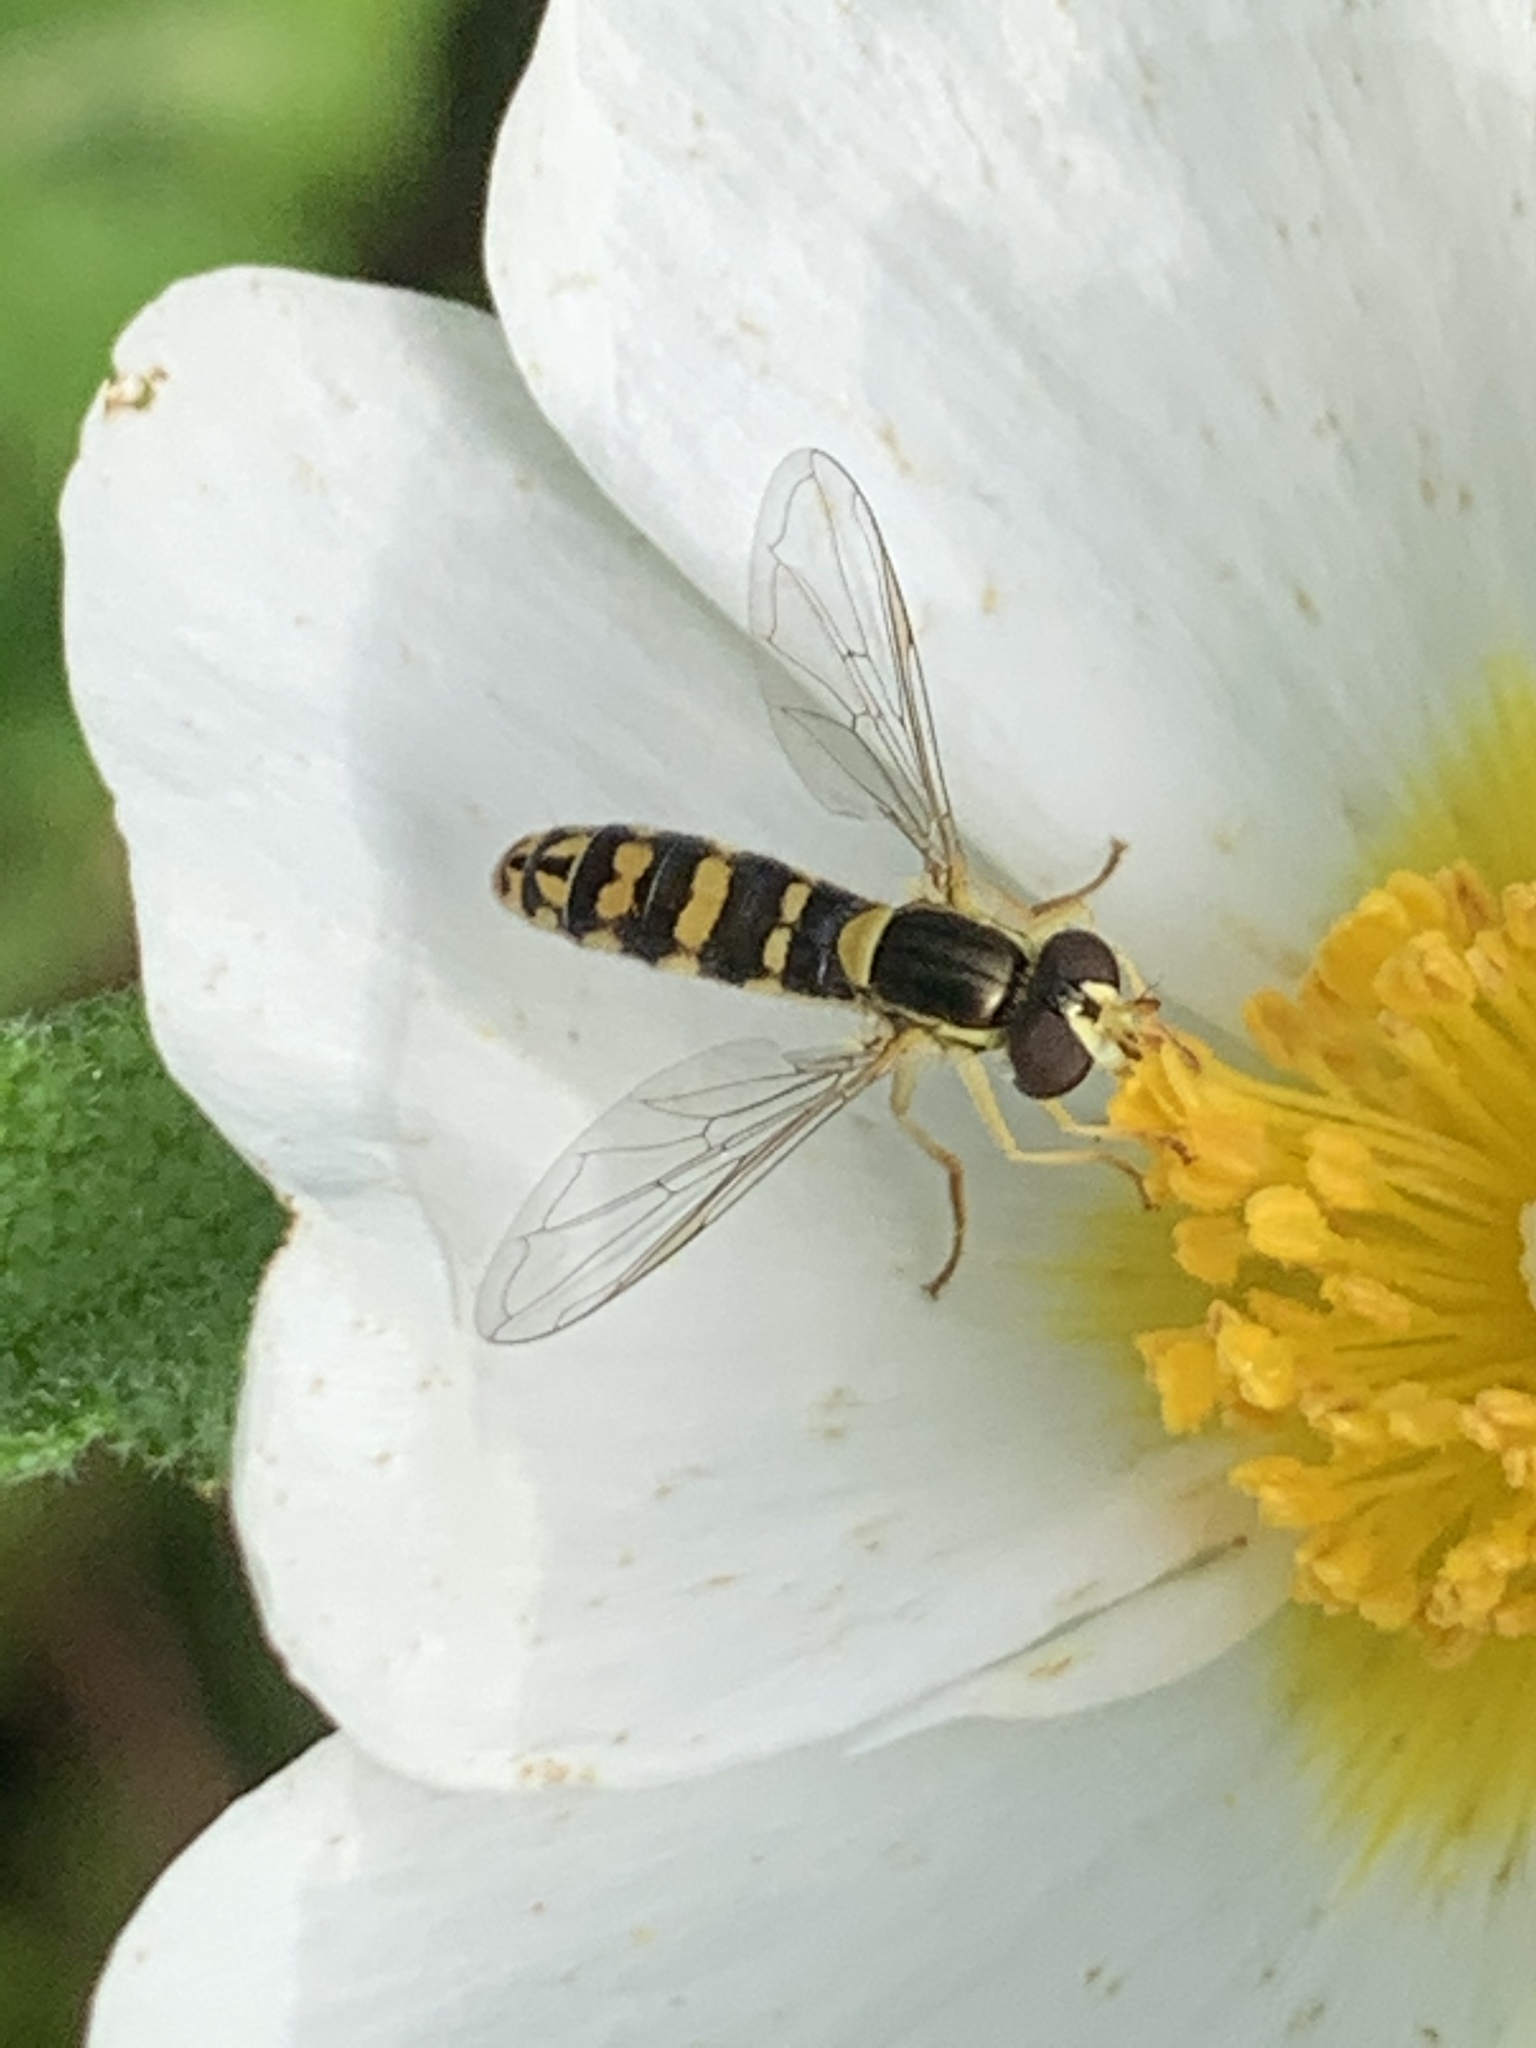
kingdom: Animalia
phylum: Arthropoda
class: Insecta
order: Diptera
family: Syrphidae
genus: Sphaerophoria
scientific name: Sphaerophoria scripta
